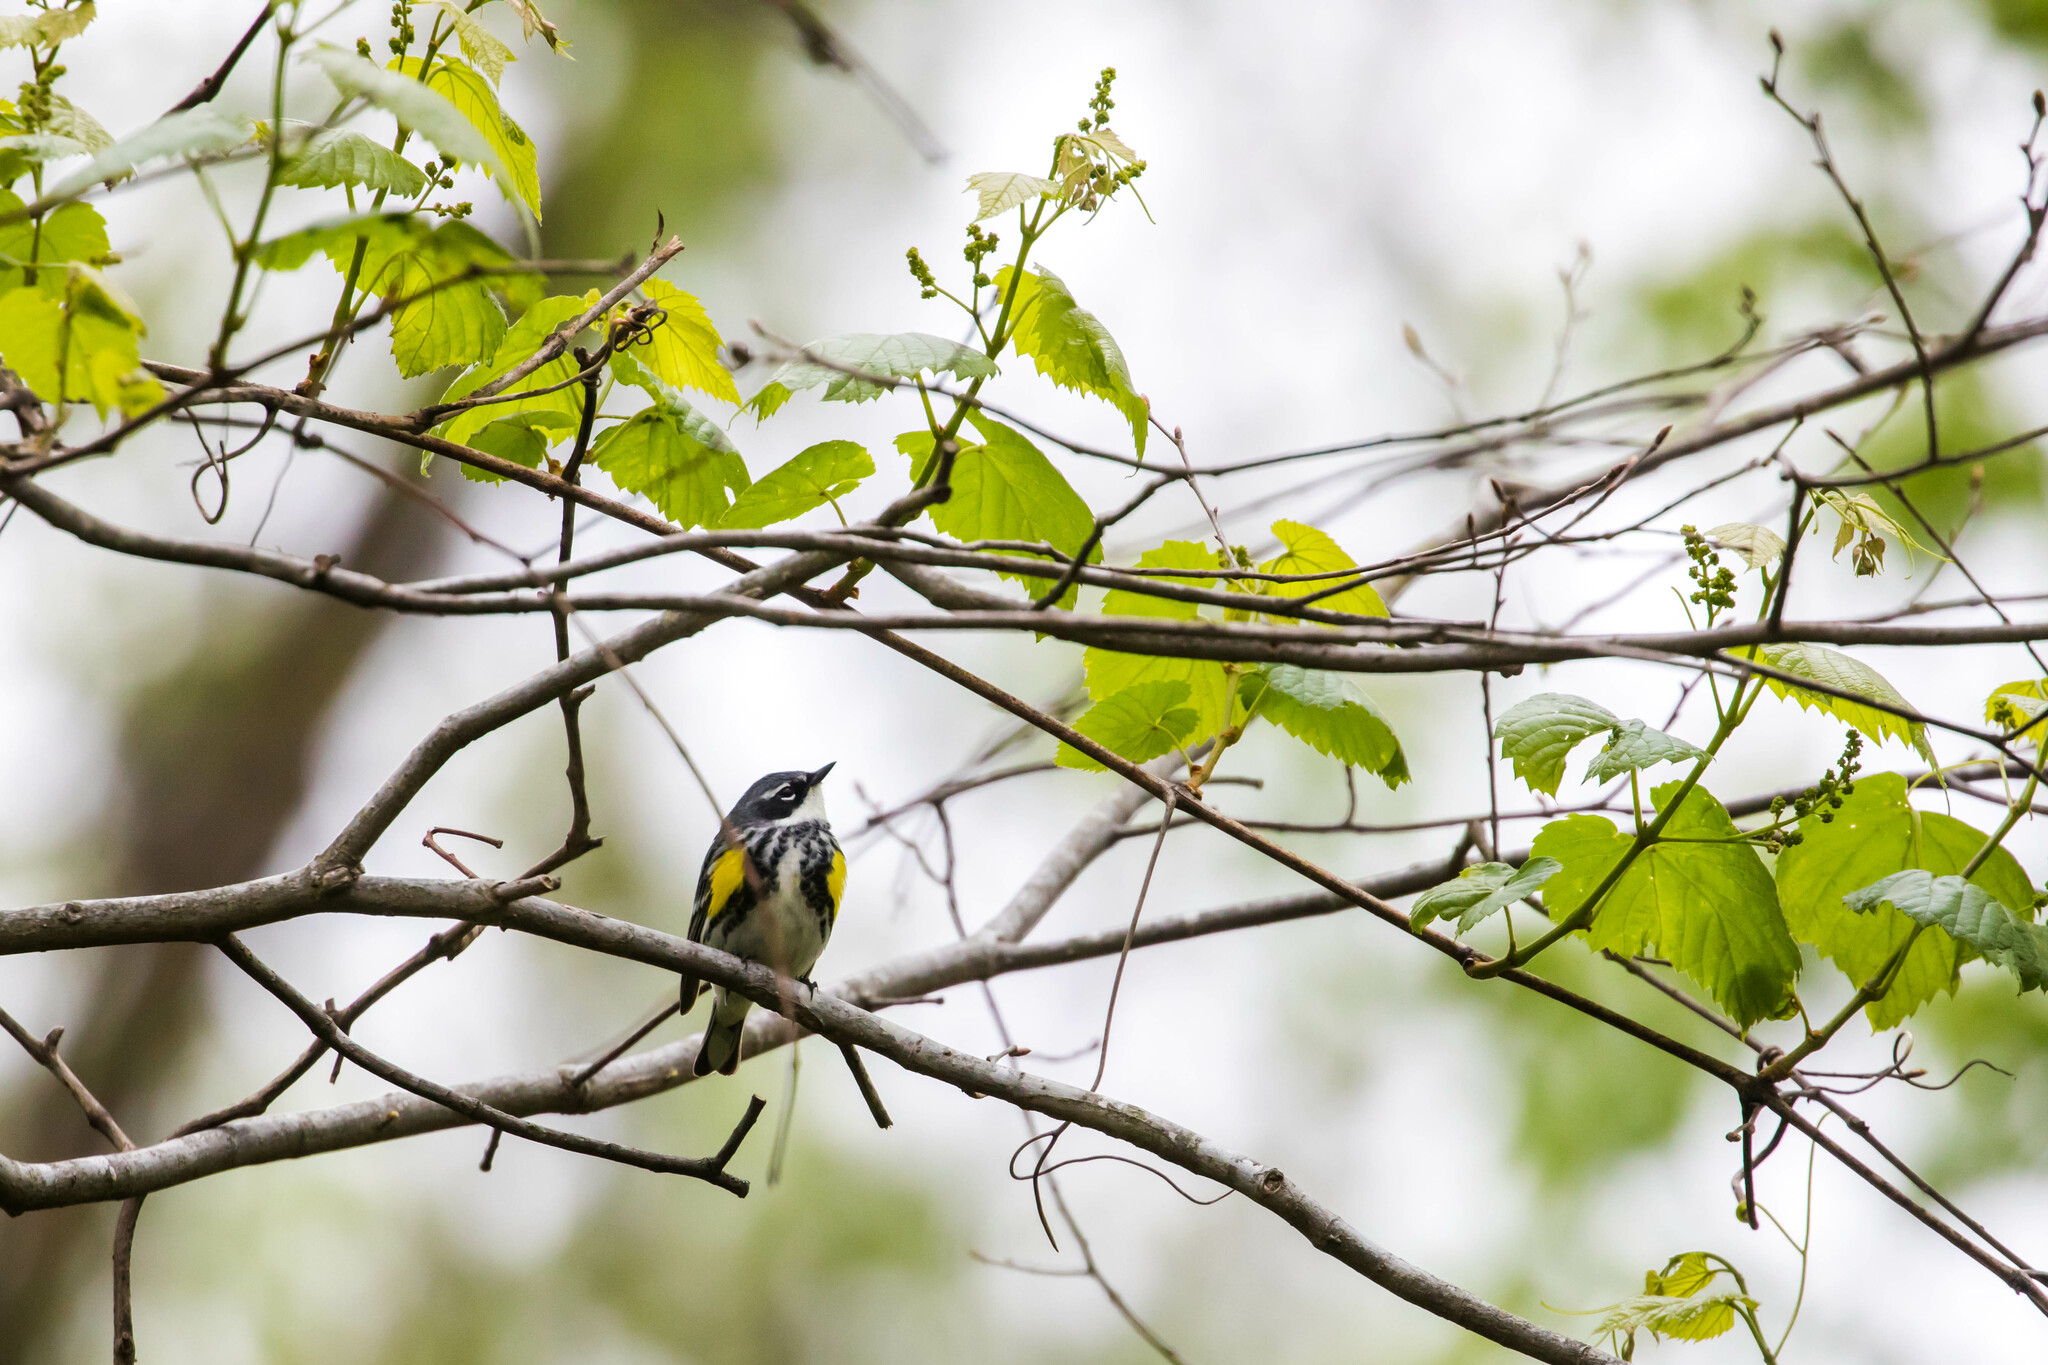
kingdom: Animalia
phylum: Chordata
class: Aves
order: Passeriformes
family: Parulidae
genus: Setophaga
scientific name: Setophaga coronata
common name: Myrtle warbler
